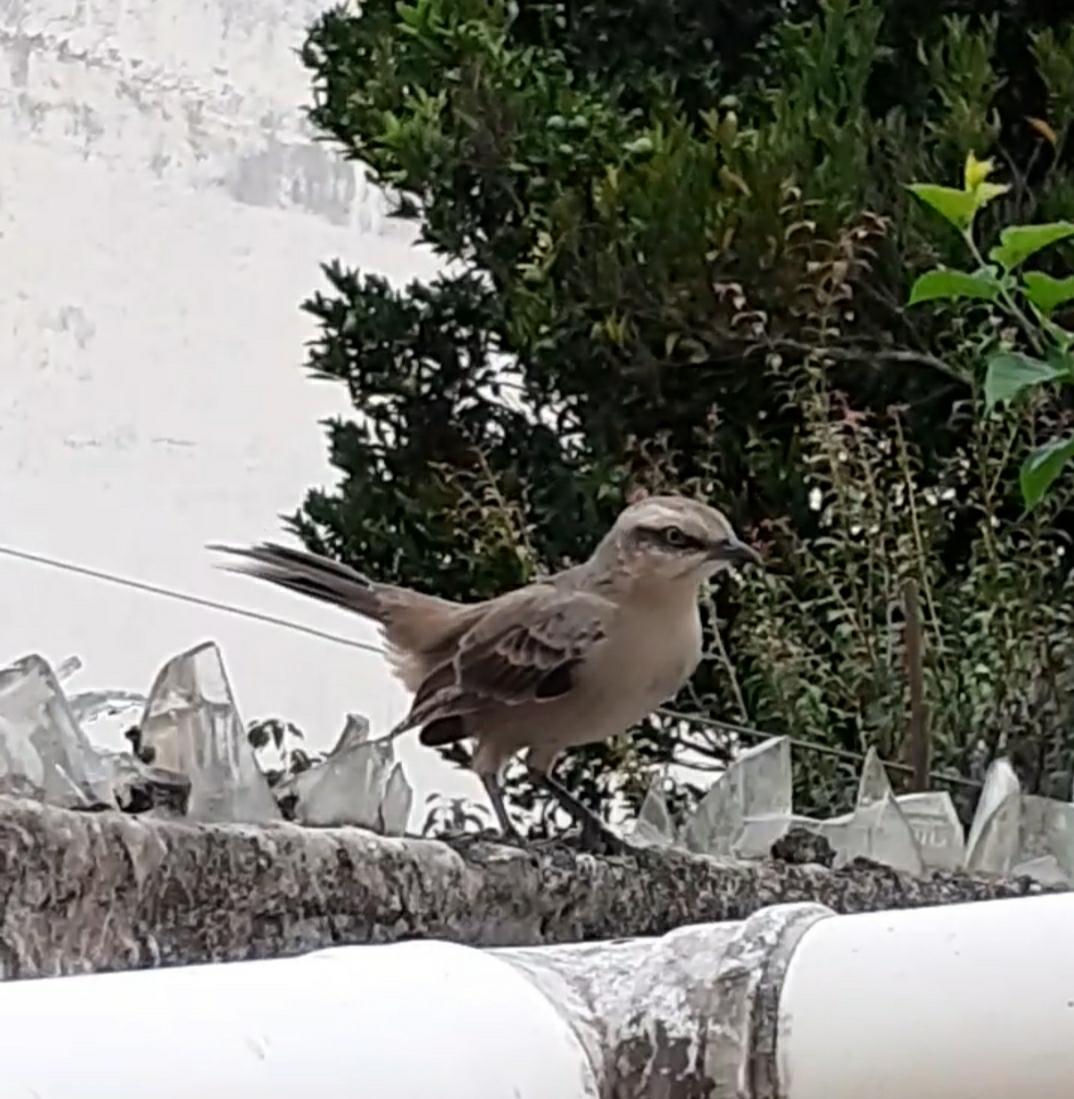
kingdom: Animalia
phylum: Chordata
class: Aves
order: Passeriformes
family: Mimidae
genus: Mimus
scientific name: Mimus saturninus
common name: Chalk-browed mockingbird
